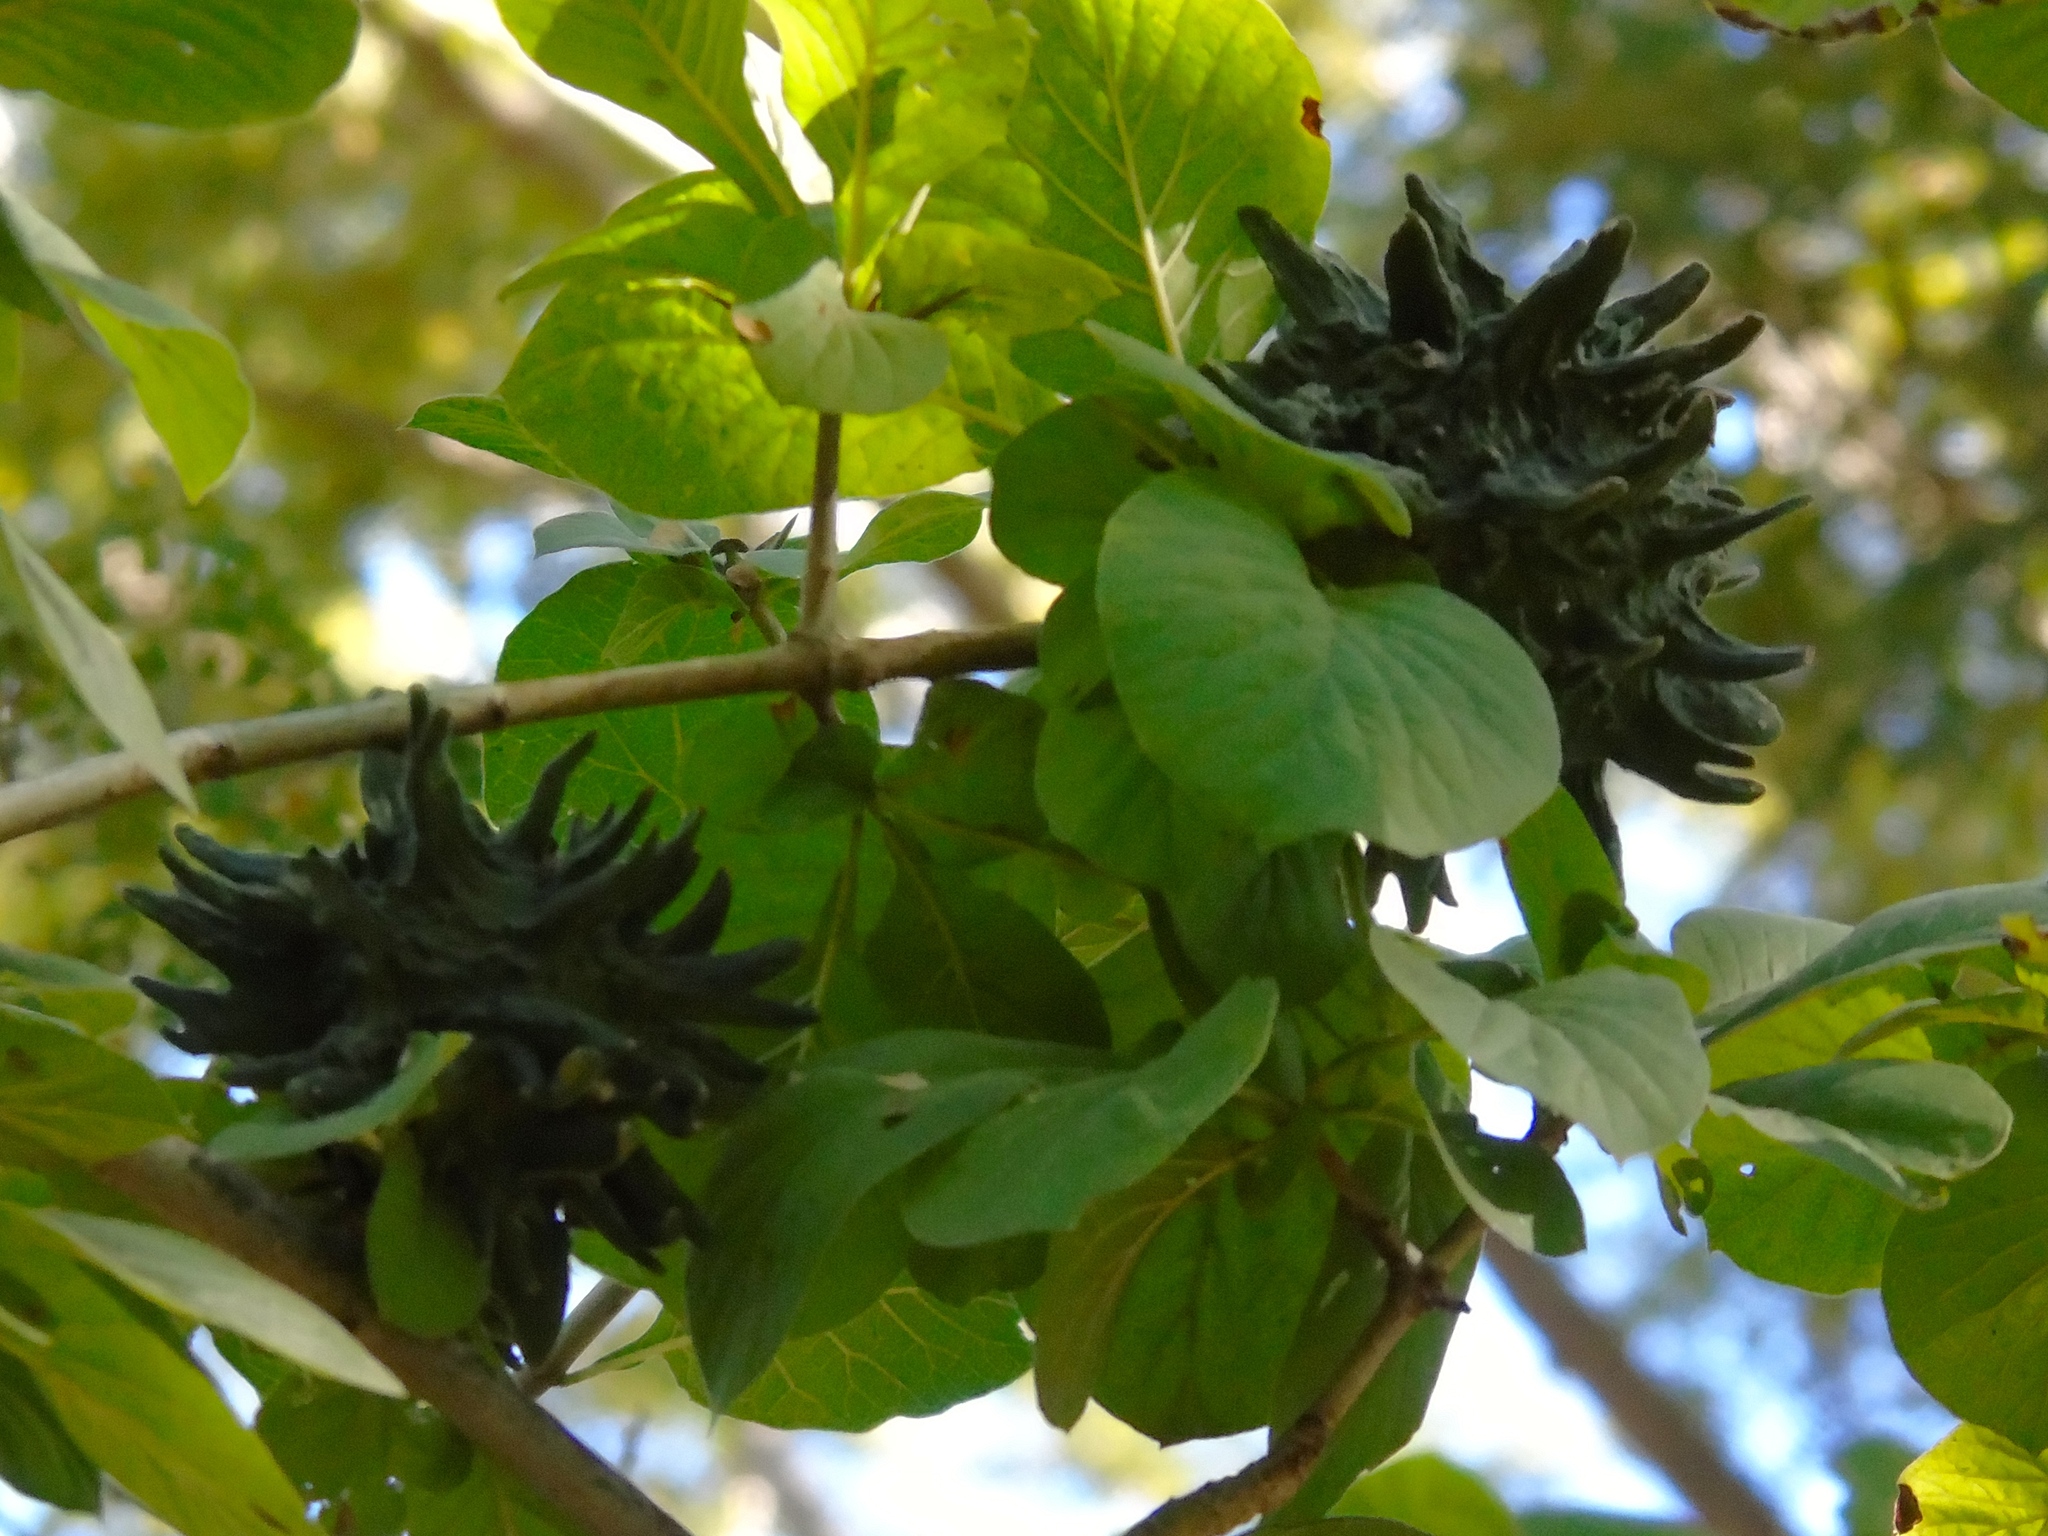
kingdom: Plantae
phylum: Tracheophyta
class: Magnoliopsida
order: Gentianales
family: Rubiaceae
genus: Randia
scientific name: Randia echinocarpa
